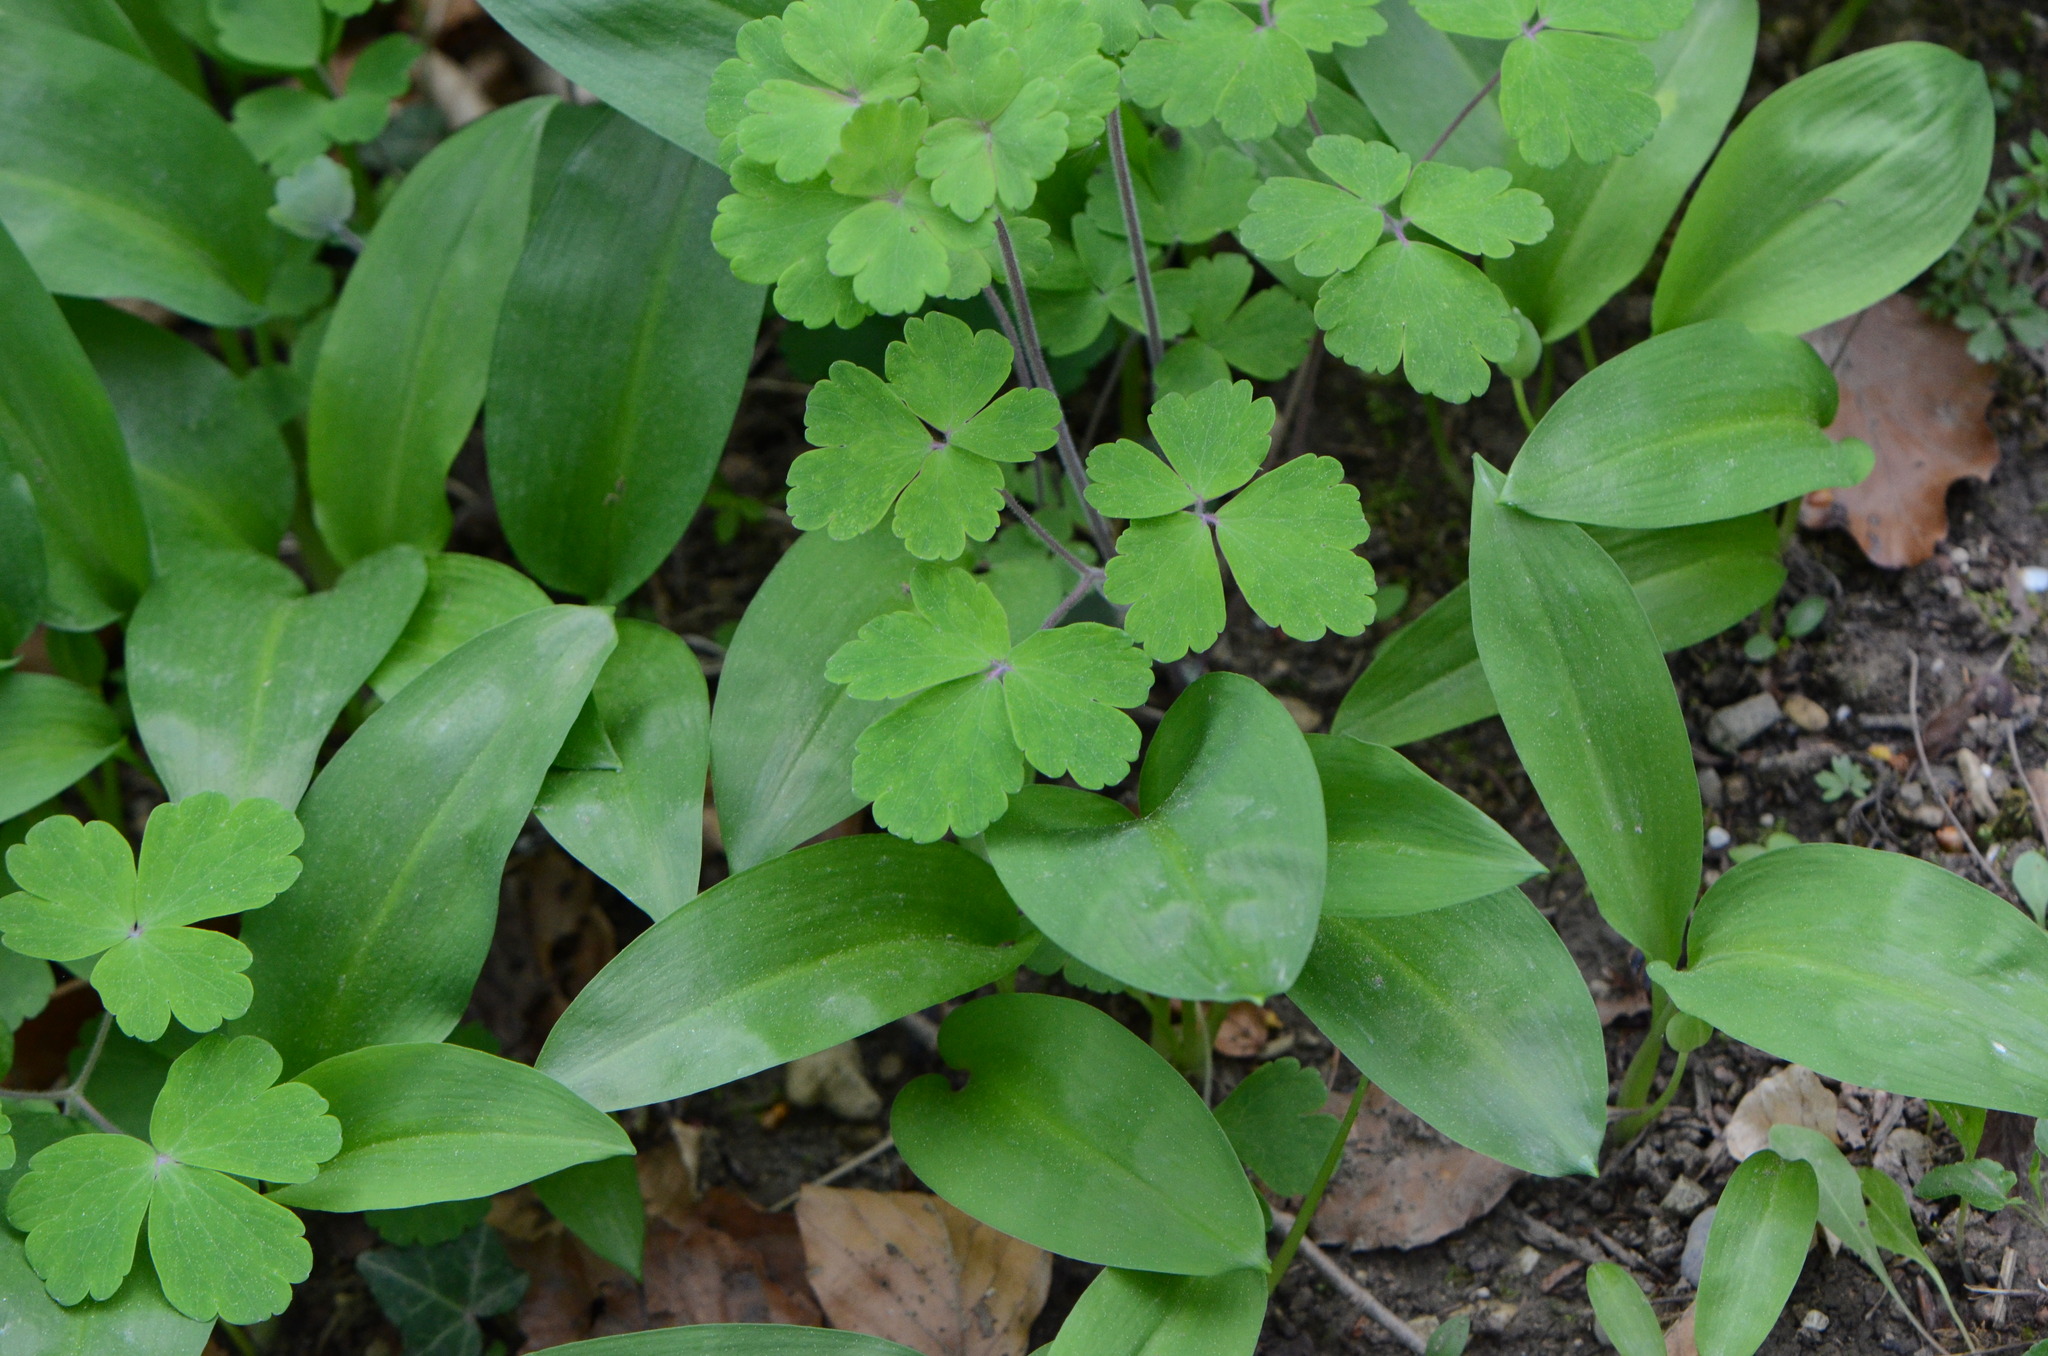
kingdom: Plantae
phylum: Tracheophyta
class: Magnoliopsida
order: Ranunculales
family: Ranunculaceae
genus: Aquilegia
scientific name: Aquilegia vulgaris
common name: Columbine
